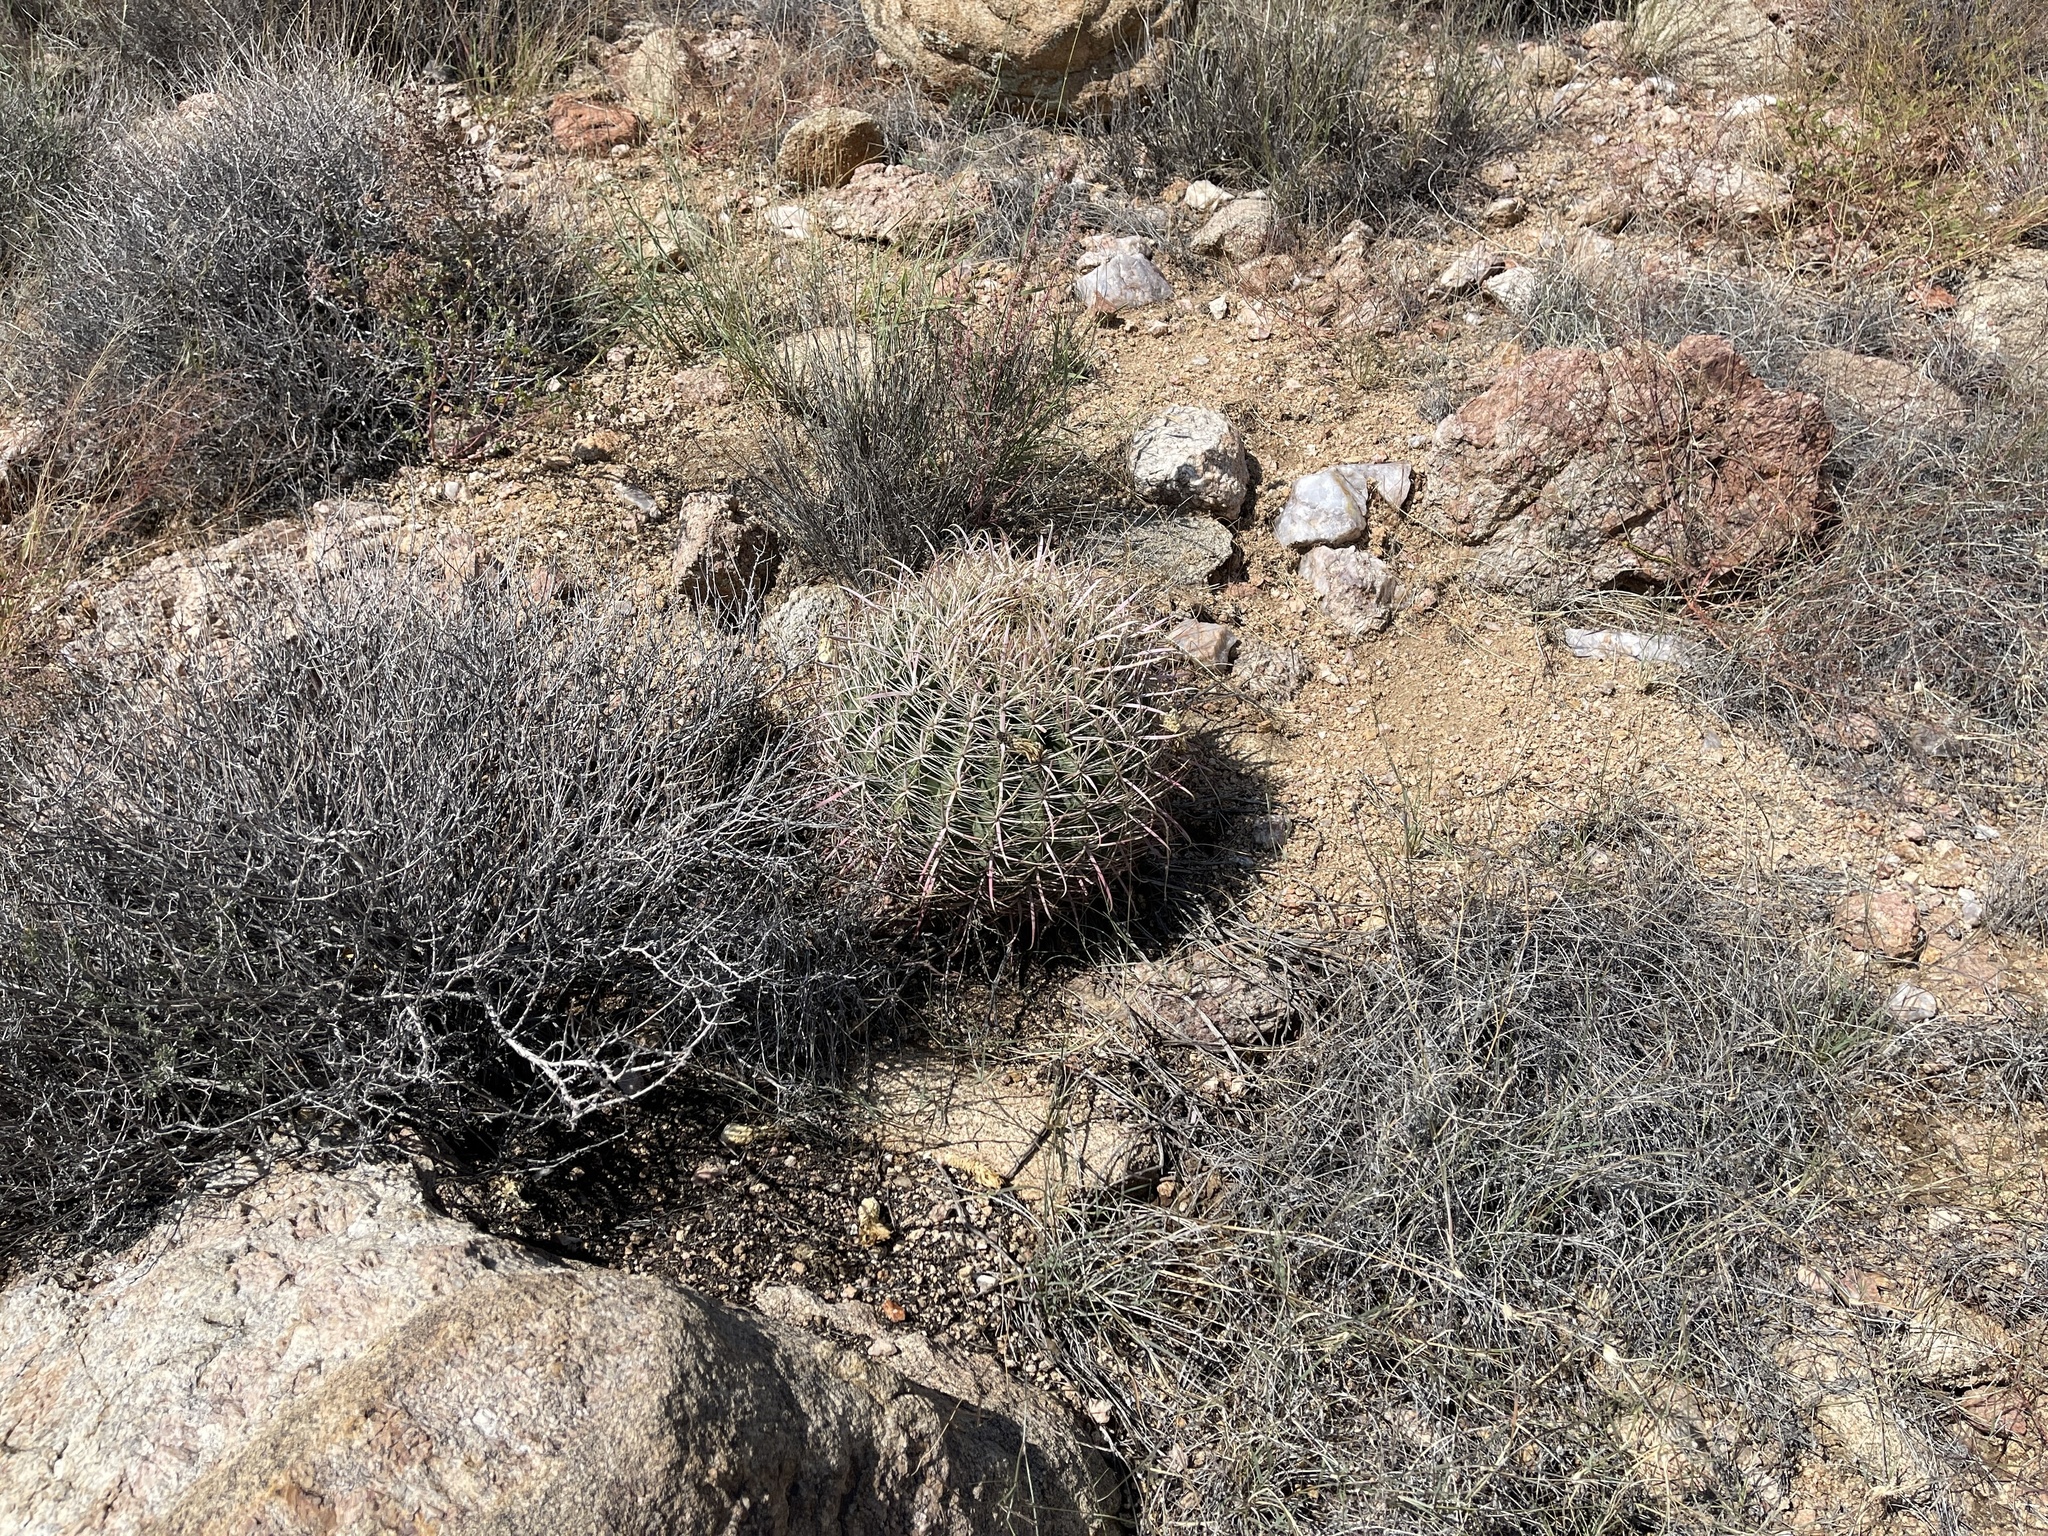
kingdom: Plantae
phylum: Tracheophyta
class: Magnoliopsida
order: Caryophyllales
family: Cactaceae
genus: Ferocactus
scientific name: Ferocactus cylindraceus
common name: California barrel cactus
